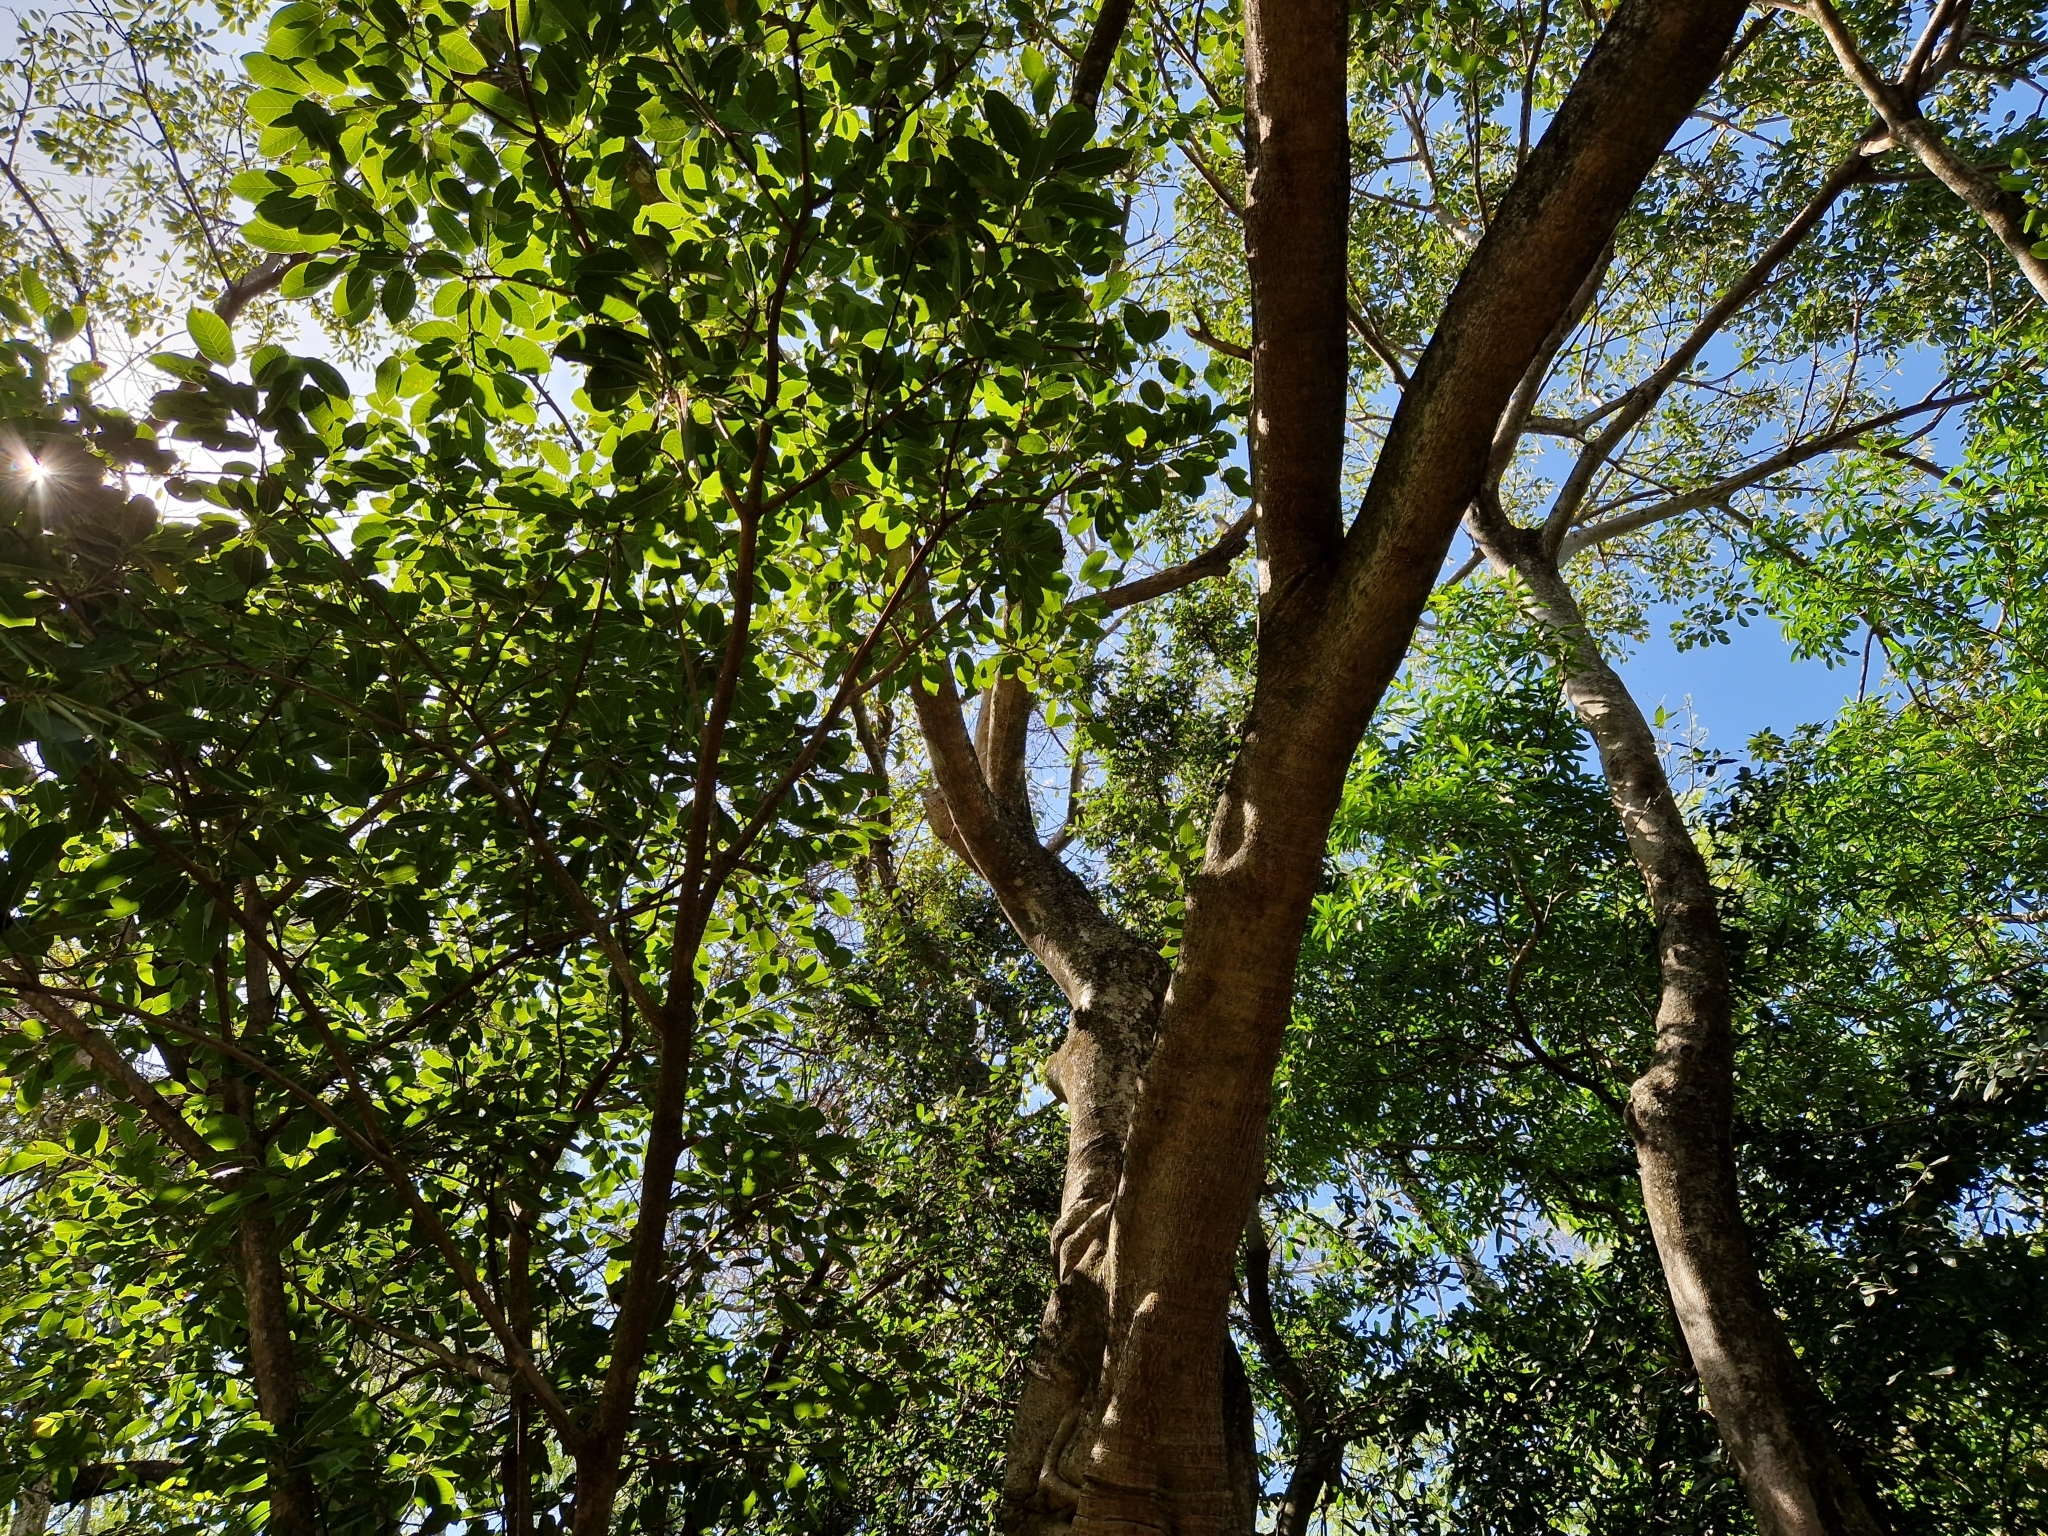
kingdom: Plantae
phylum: Tracheophyta
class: Magnoliopsida
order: Rosales
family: Moraceae
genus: Sorocea
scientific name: Sorocea sprucei
